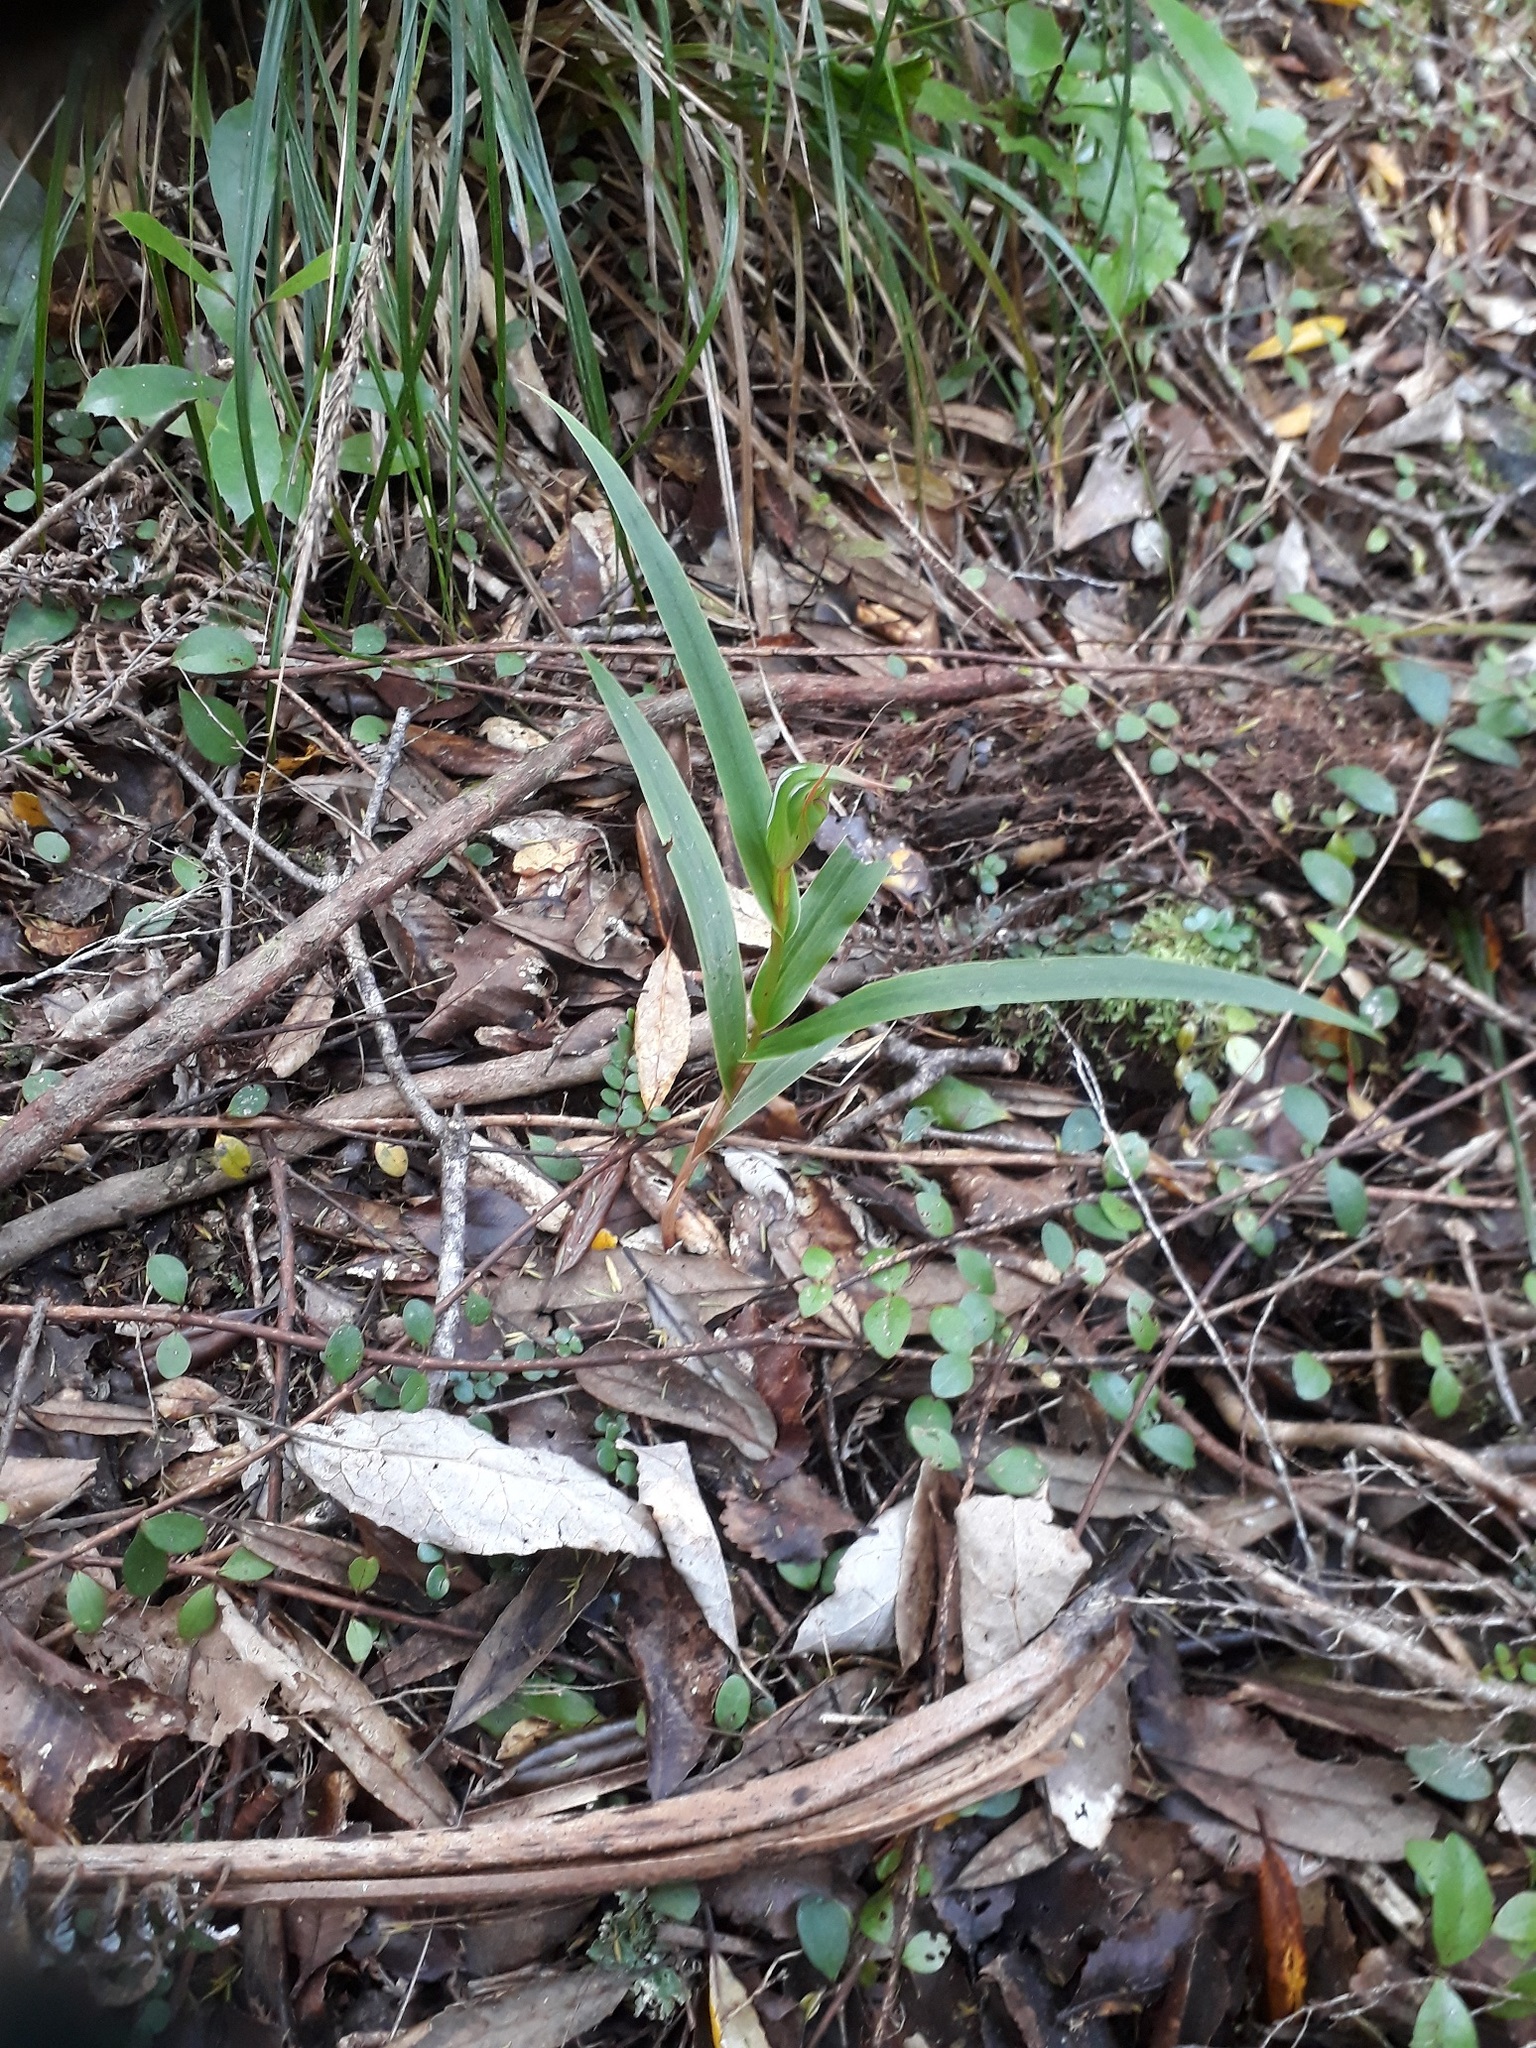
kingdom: Plantae
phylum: Tracheophyta
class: Liliopsida
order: Asparagales
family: Orchidaceae
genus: Pterostylis
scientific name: Pterostylis cardiostigma
